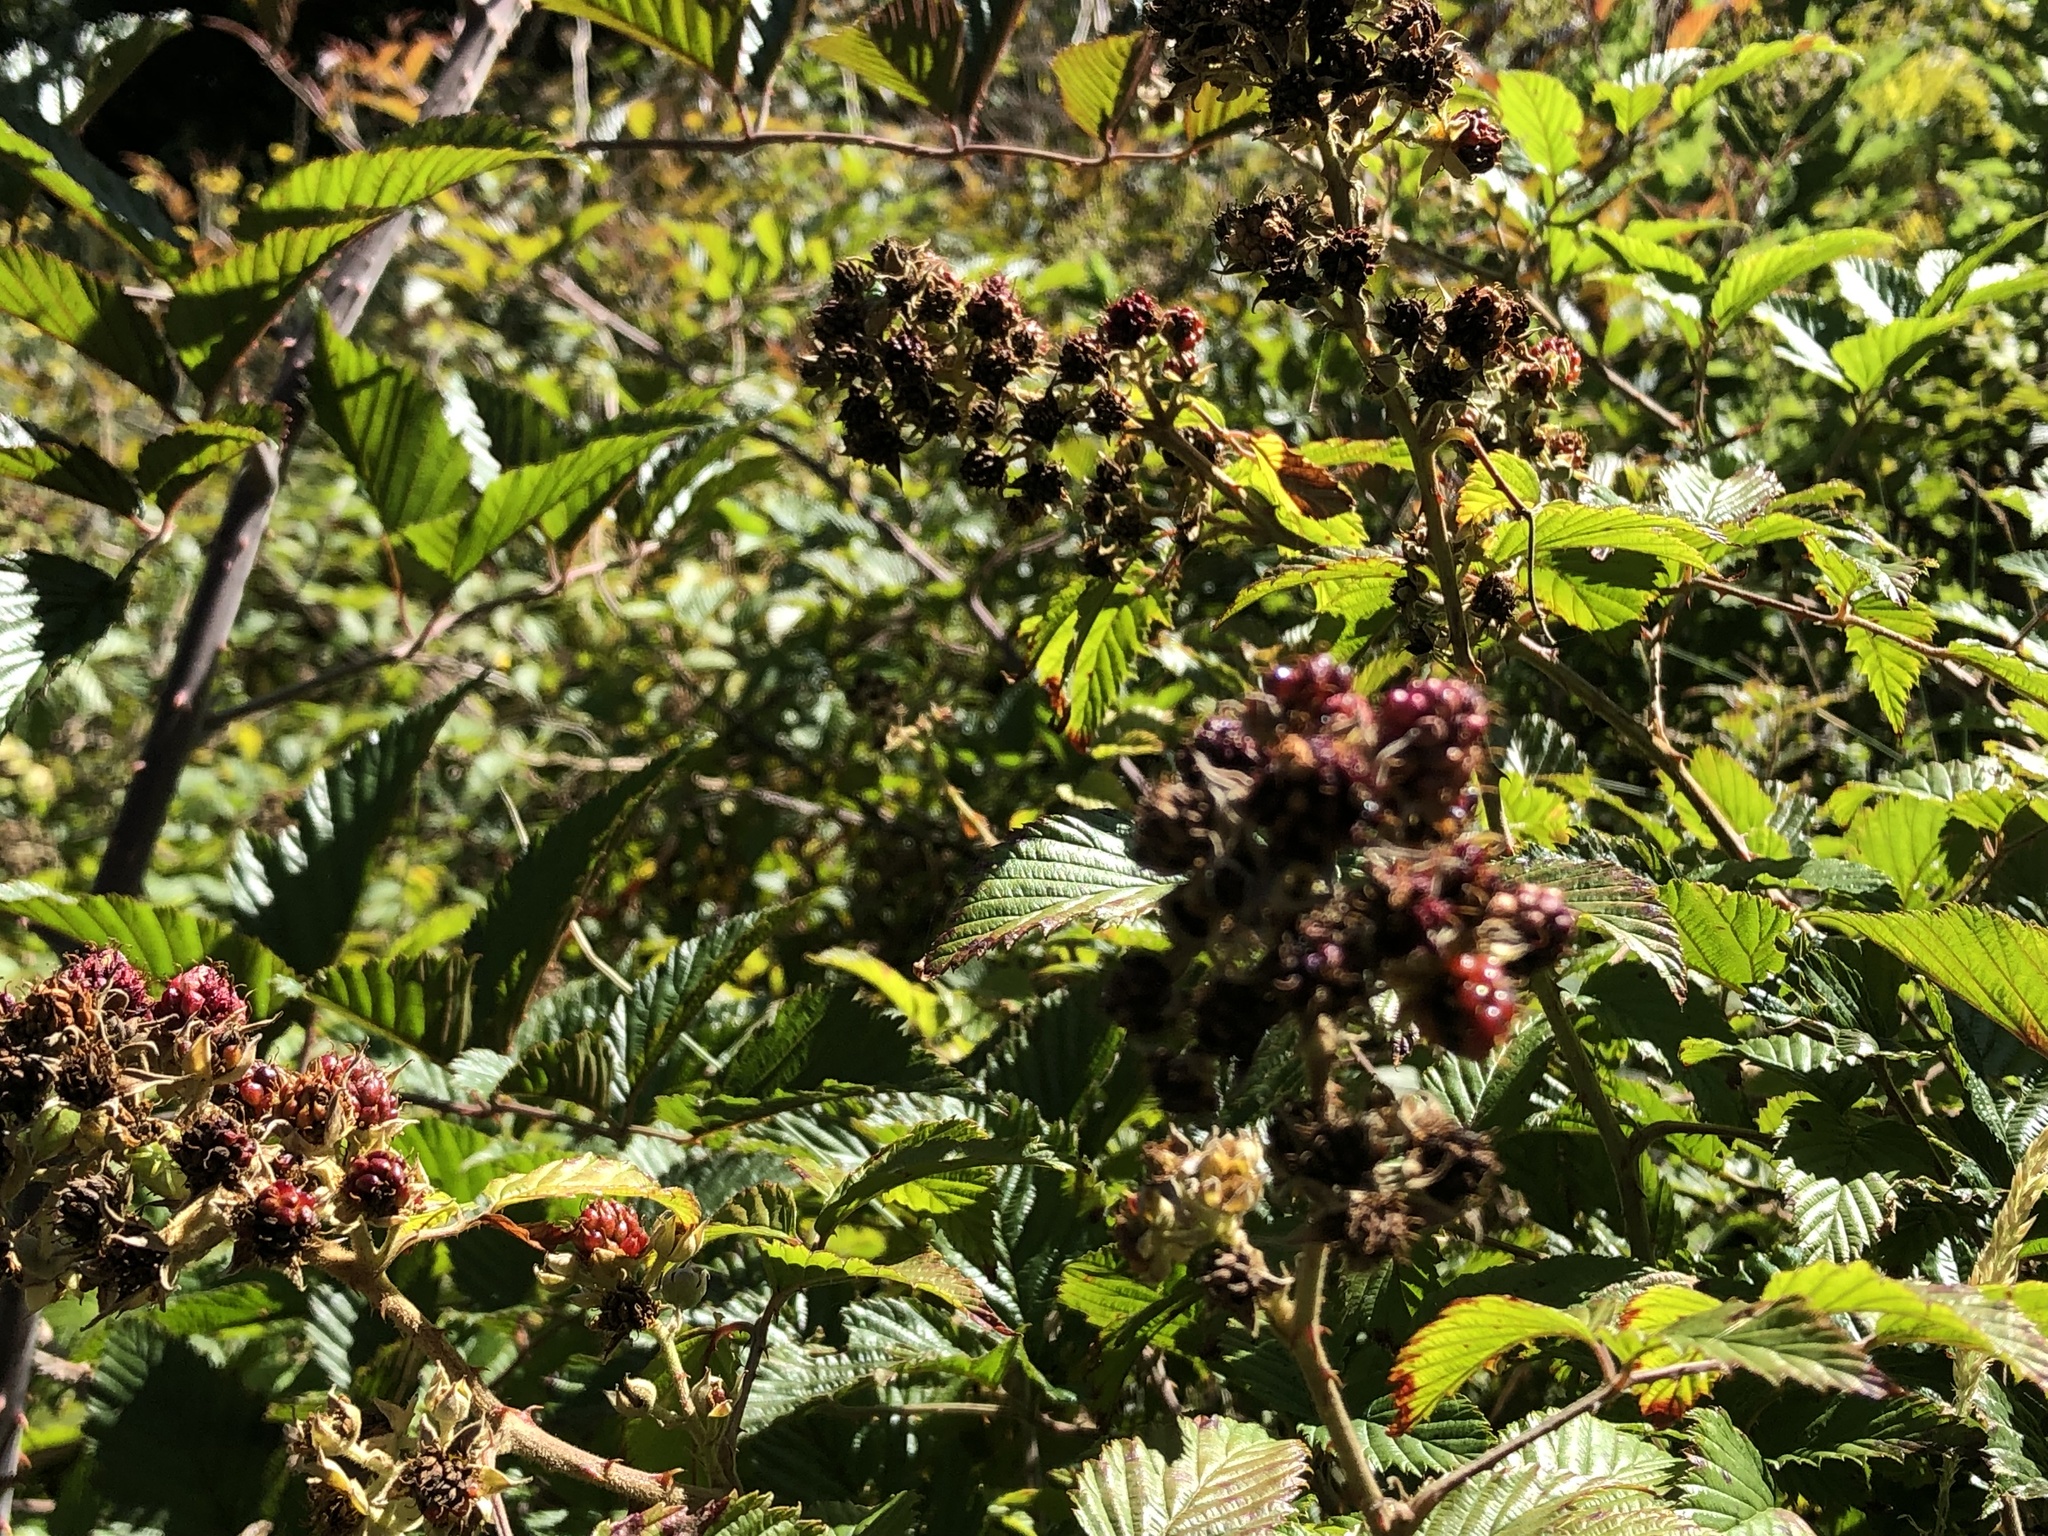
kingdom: Plantae
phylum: Tracheophyta
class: Magnoliopsida
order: Rosales
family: Rosaceae
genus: Rubus
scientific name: Rubus pinnatus
